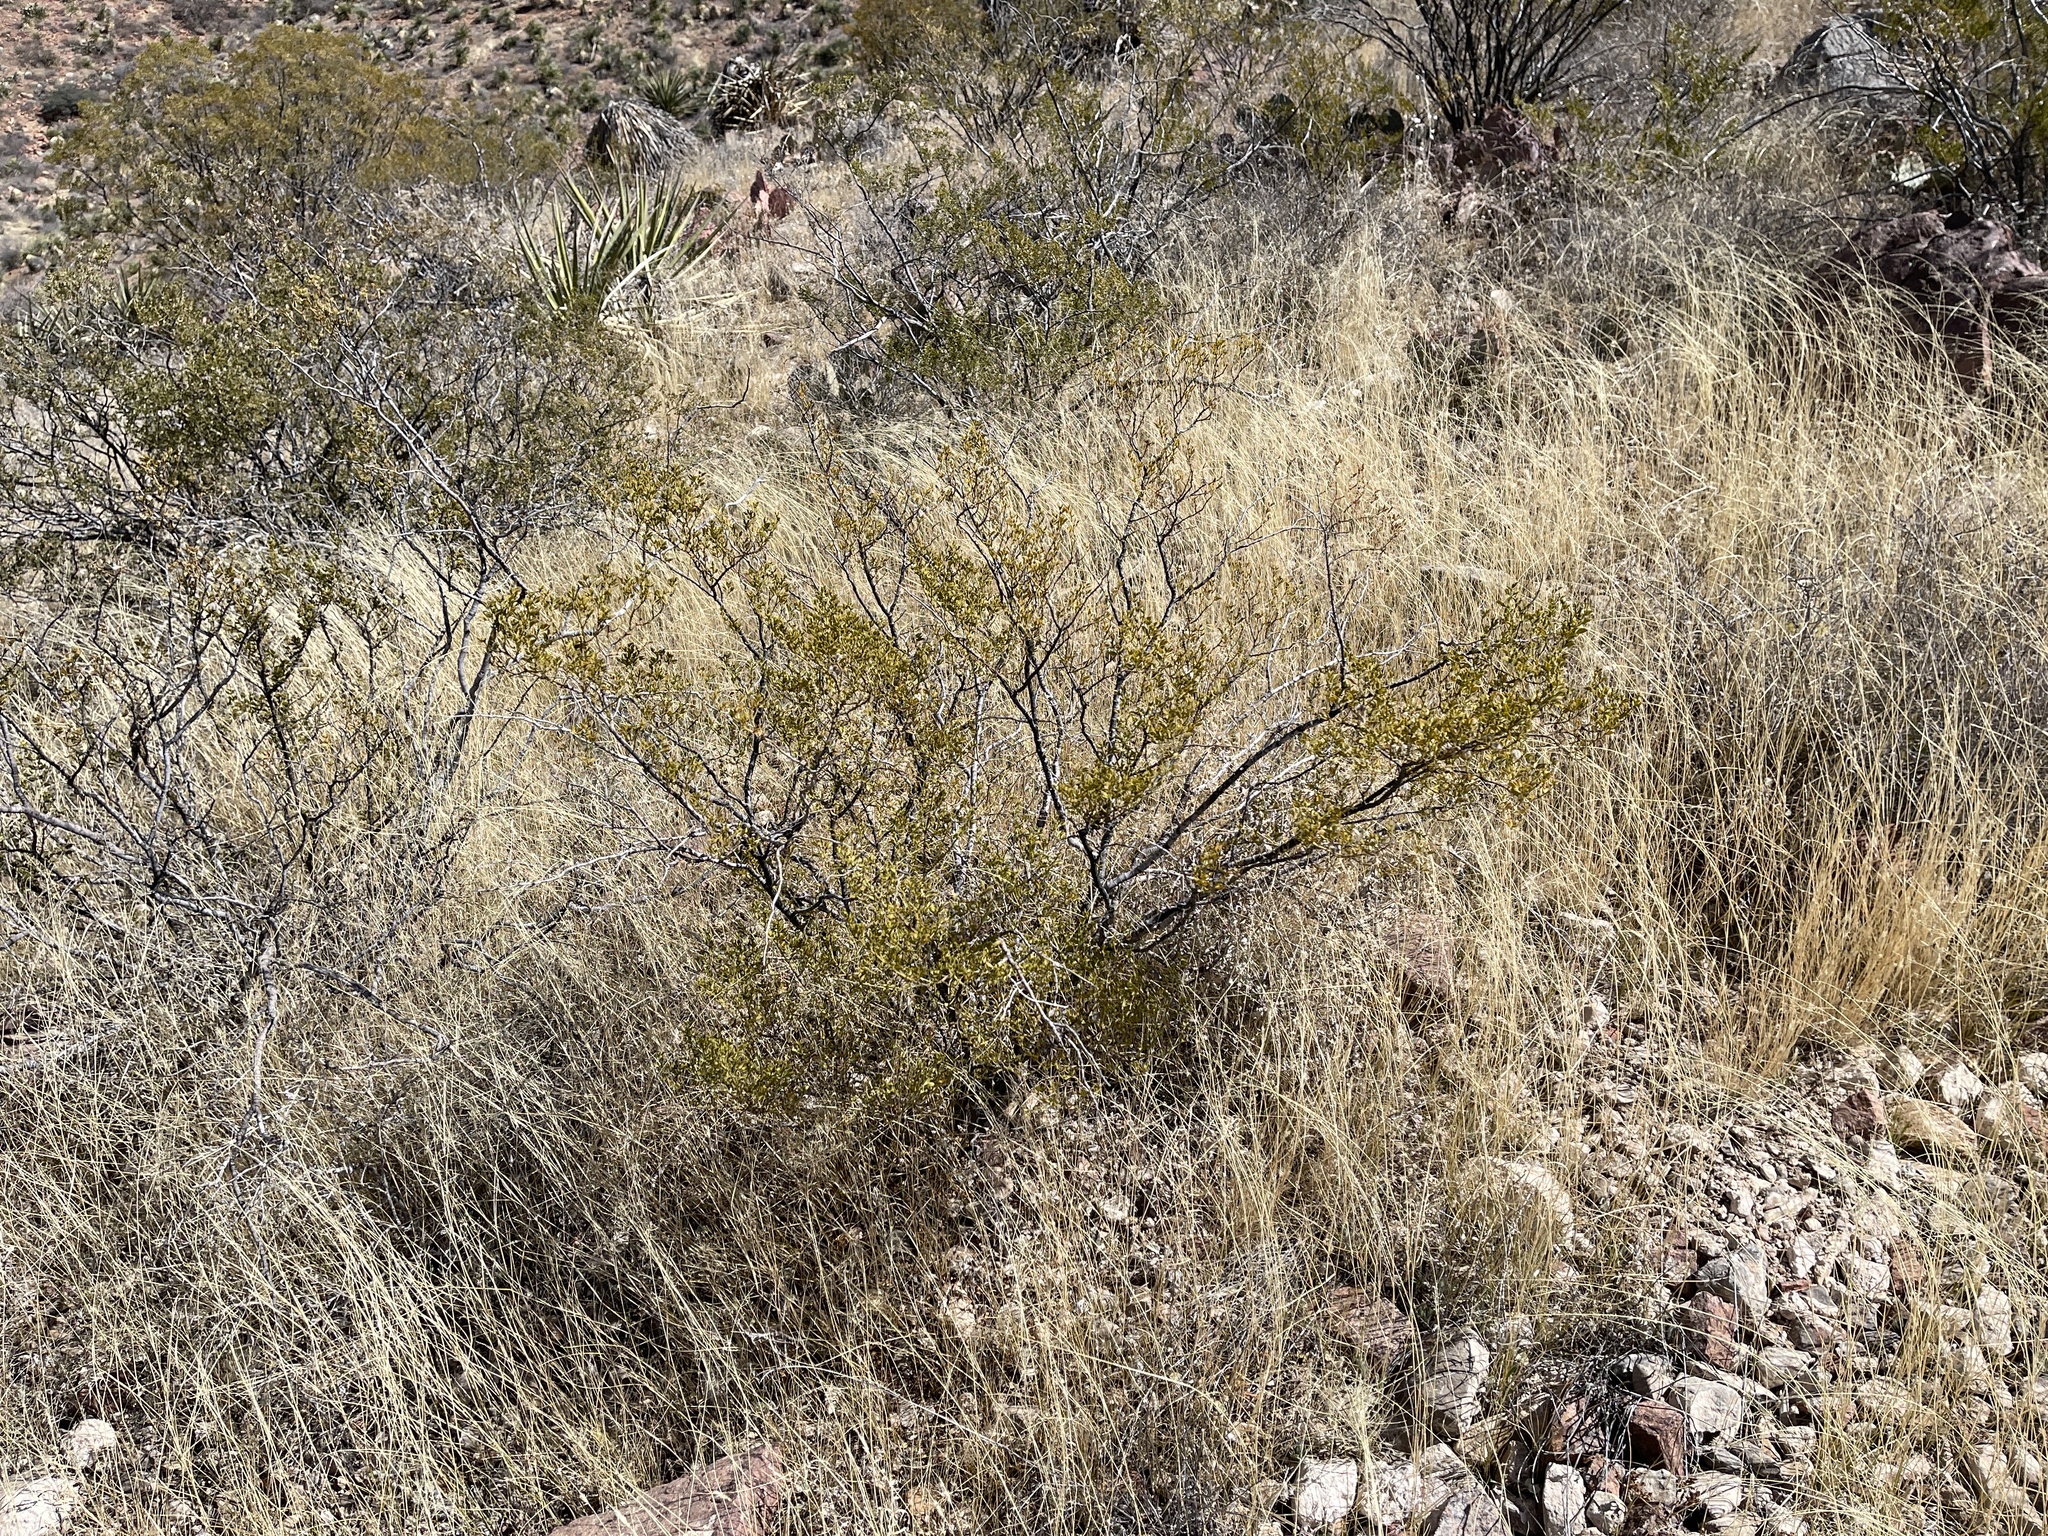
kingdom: Plantae
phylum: Tracheophyta
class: Magnoliopsida
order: Zygophyllales
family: Zygophyllaceae
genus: Larrea
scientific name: Larrea tridentata
